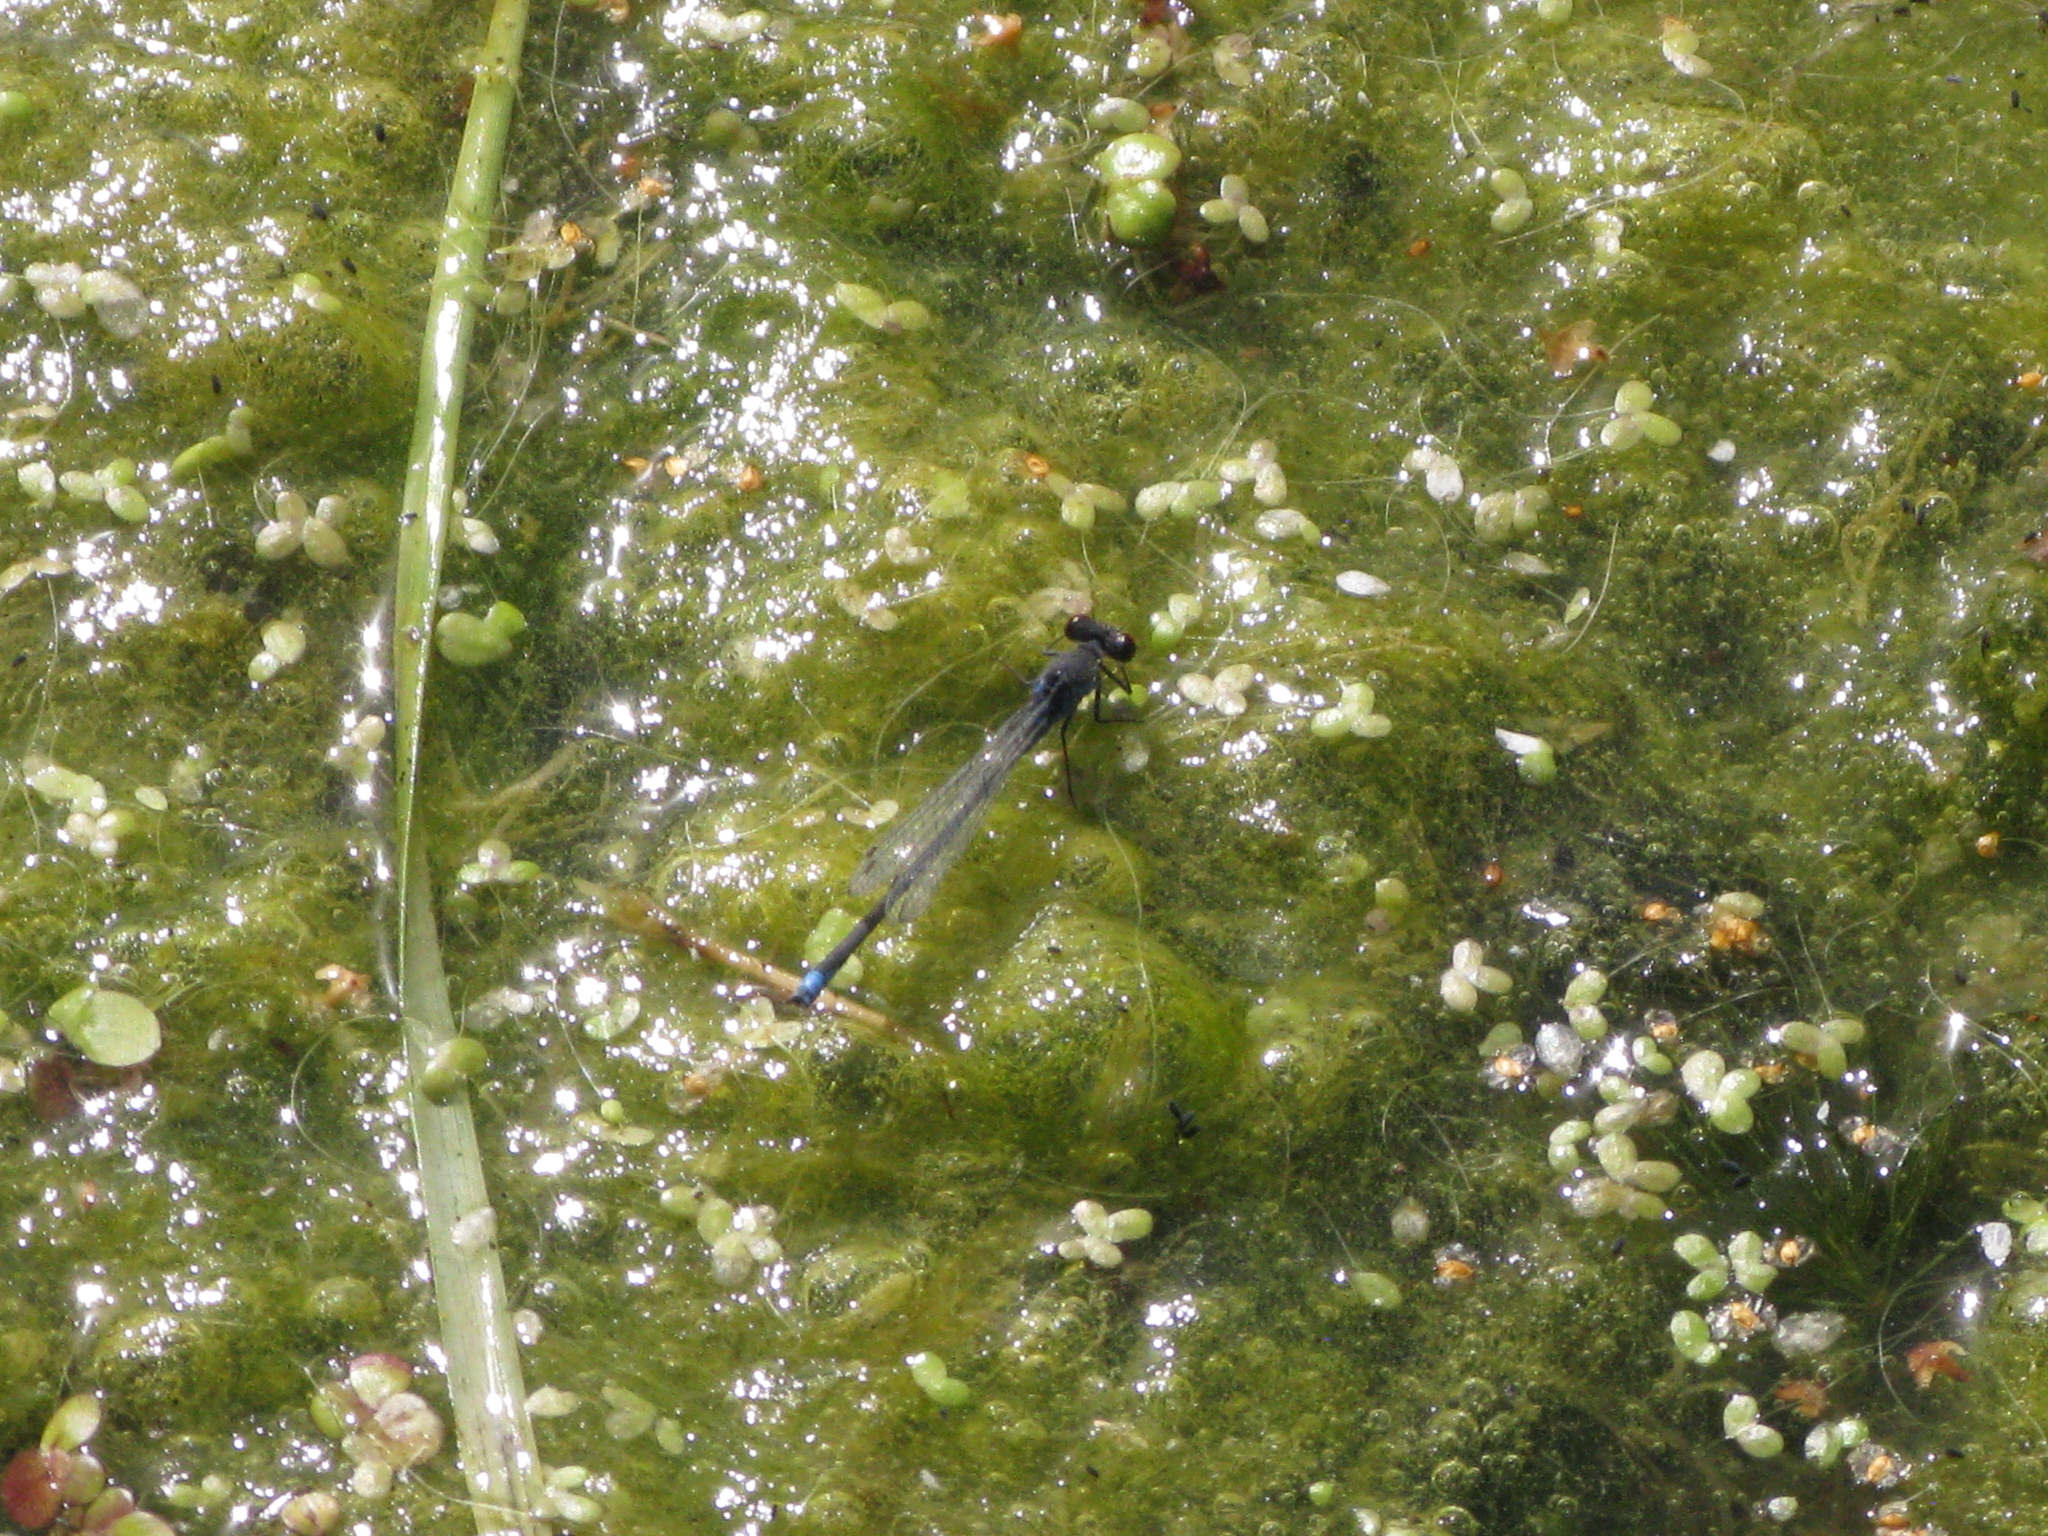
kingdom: Animalia
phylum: Arthropoda
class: Insecta
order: Odonata
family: Coenagrionidae
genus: Erythromma
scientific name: Erythromma viridulum
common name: Small red-eyed damselfly
